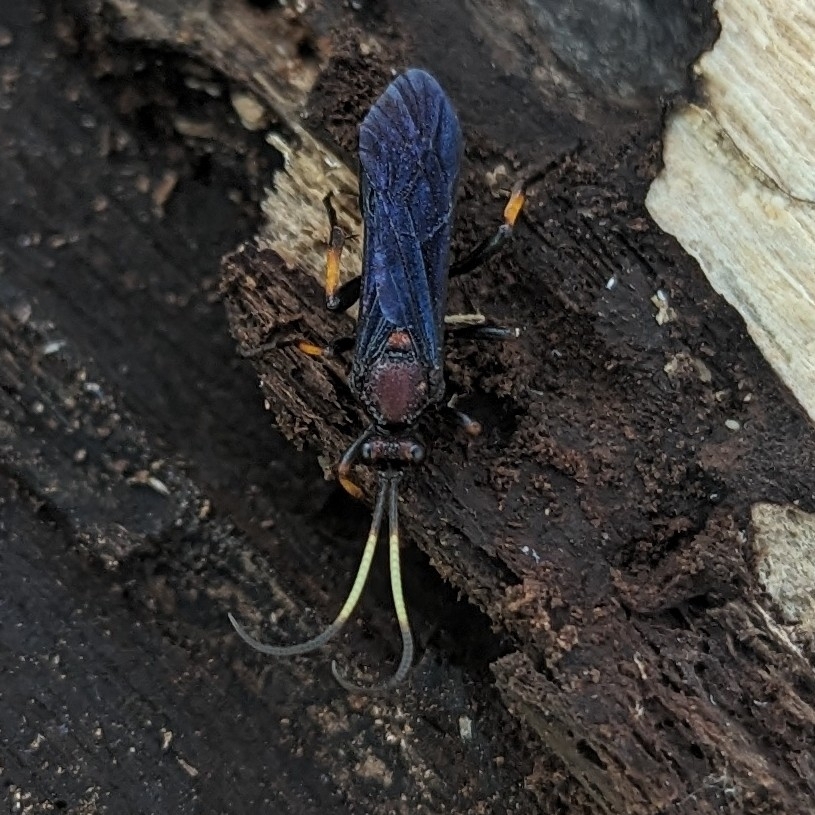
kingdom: Animalia
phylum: Arthropoda
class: Insecta
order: Hymenoptera
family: Ichneumonidae
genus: Ichneumon
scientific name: Ichneumon centrator
